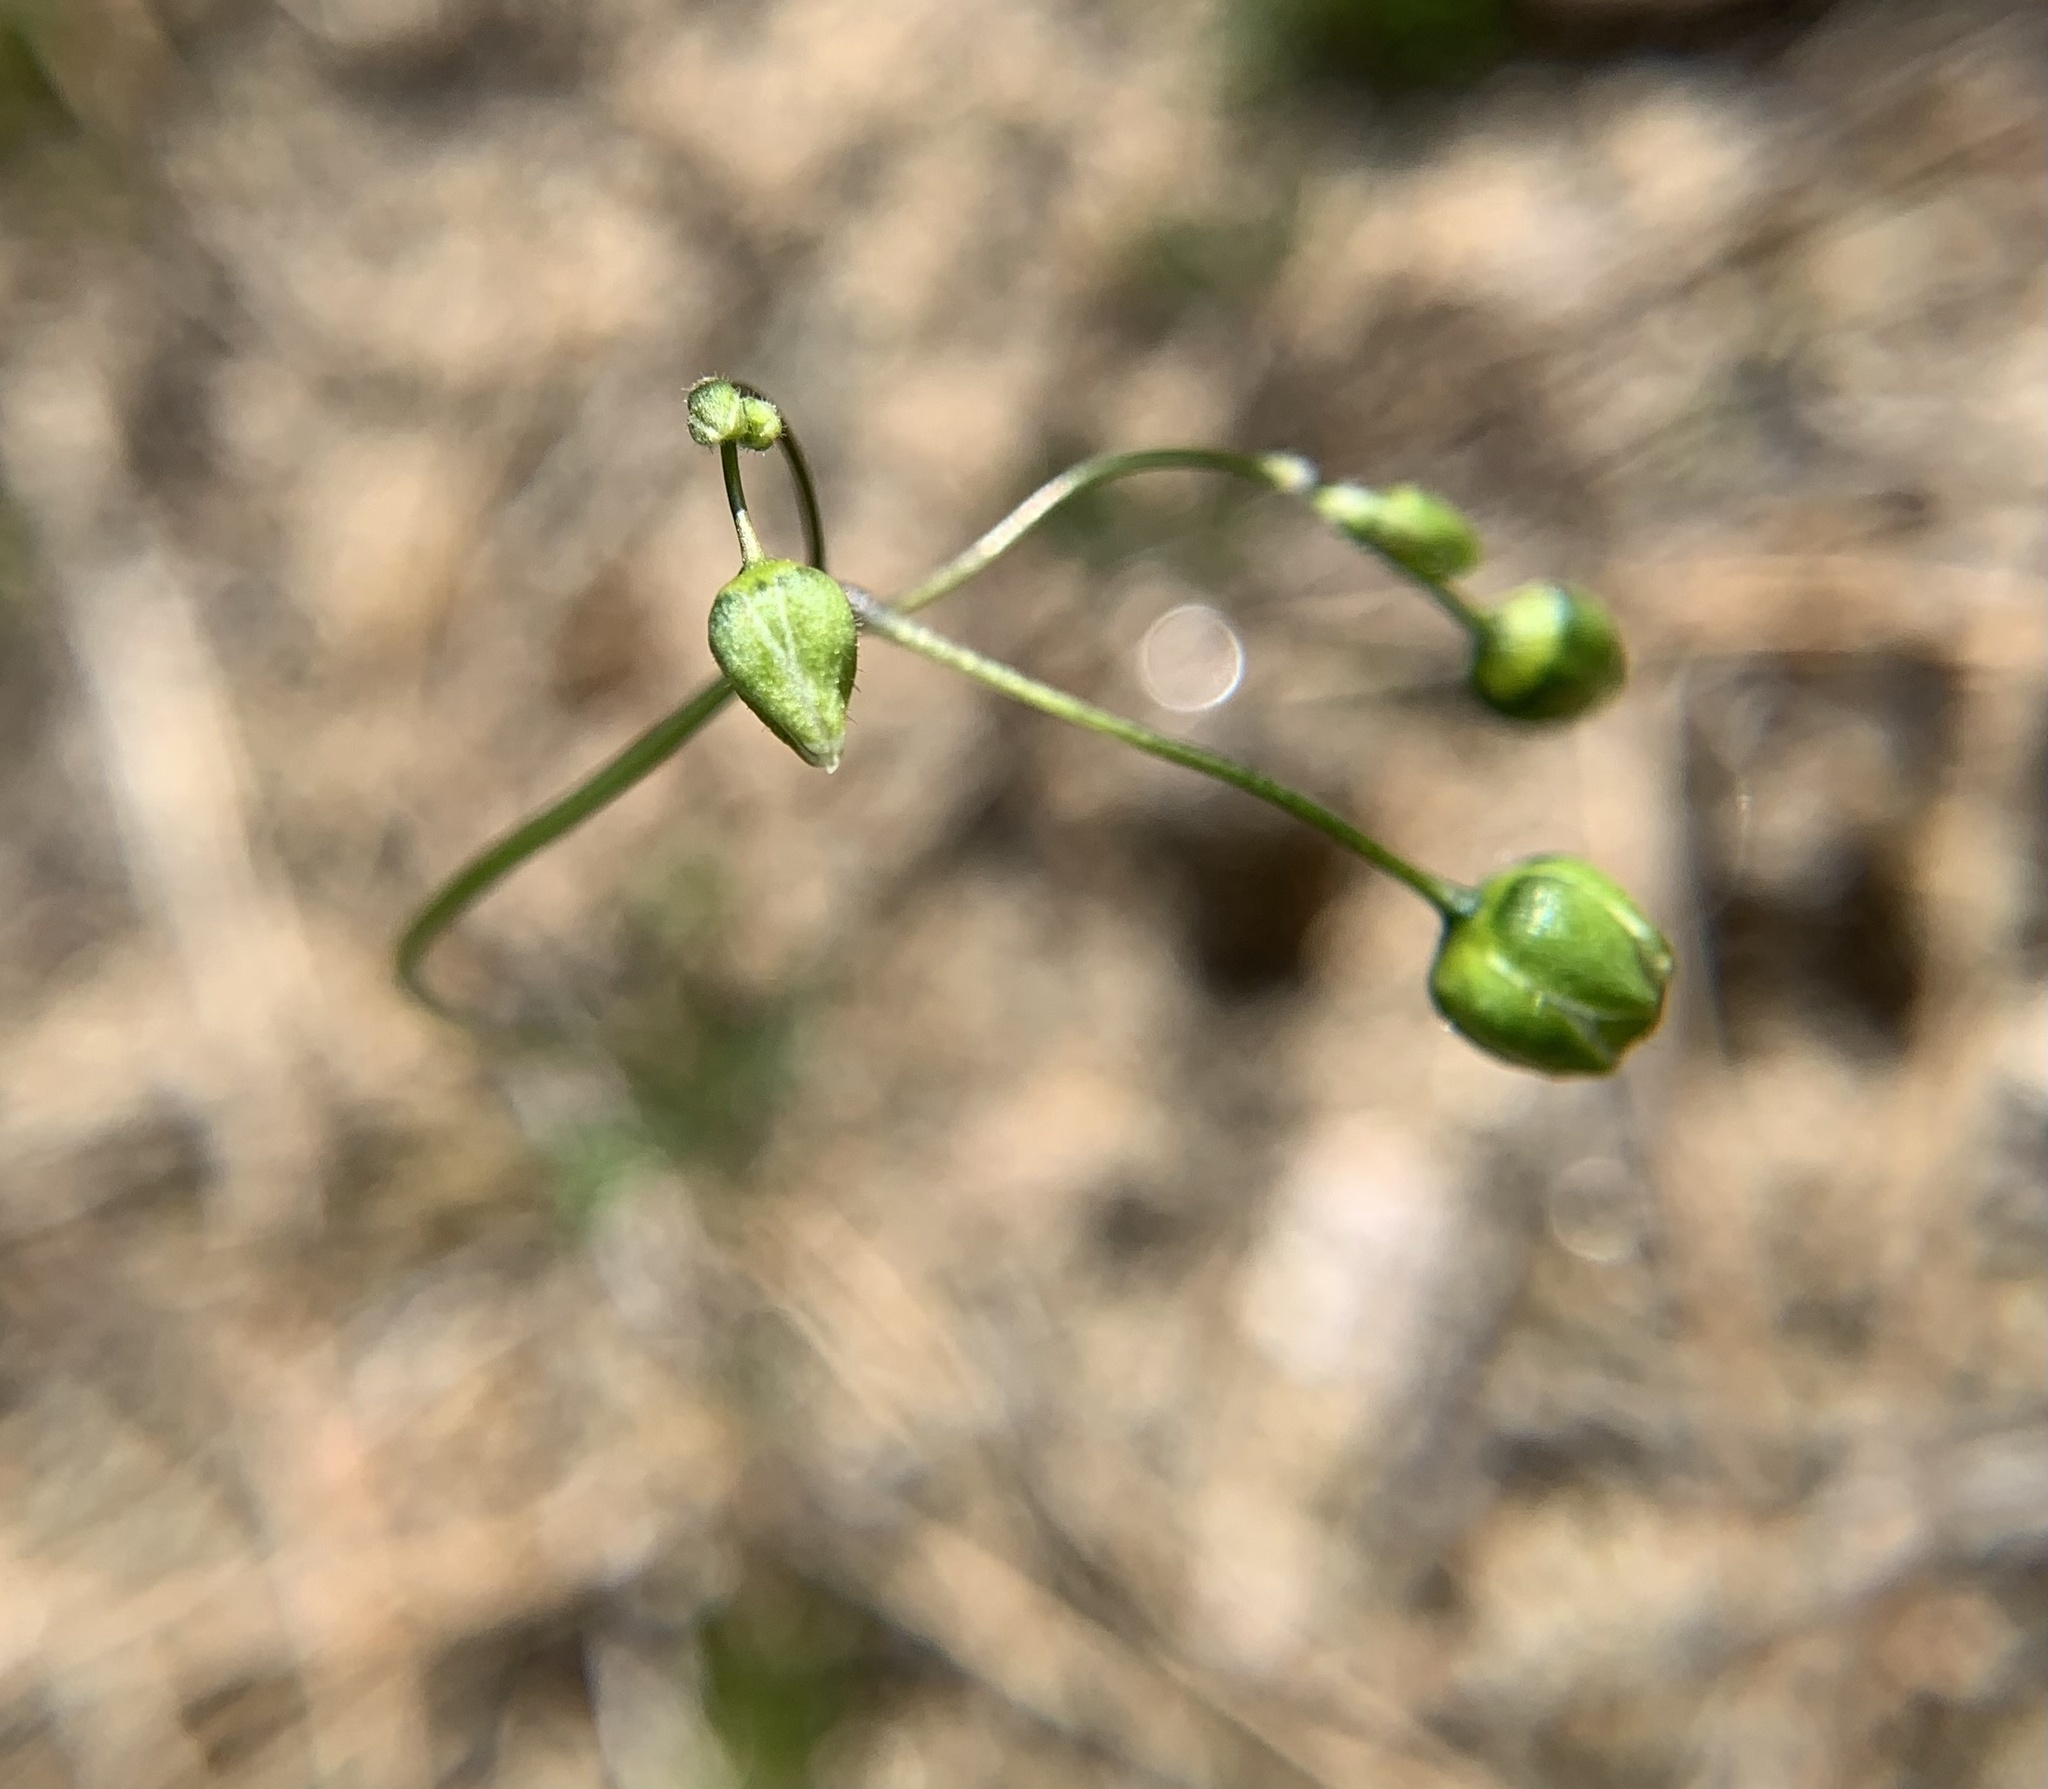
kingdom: Plantae
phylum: Tracheophyta
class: Magnoliopsida
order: Caryophyllales
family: Caryophyllaceae
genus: Spergula
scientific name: Spergula morisonii
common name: Pearlwort spurrey
